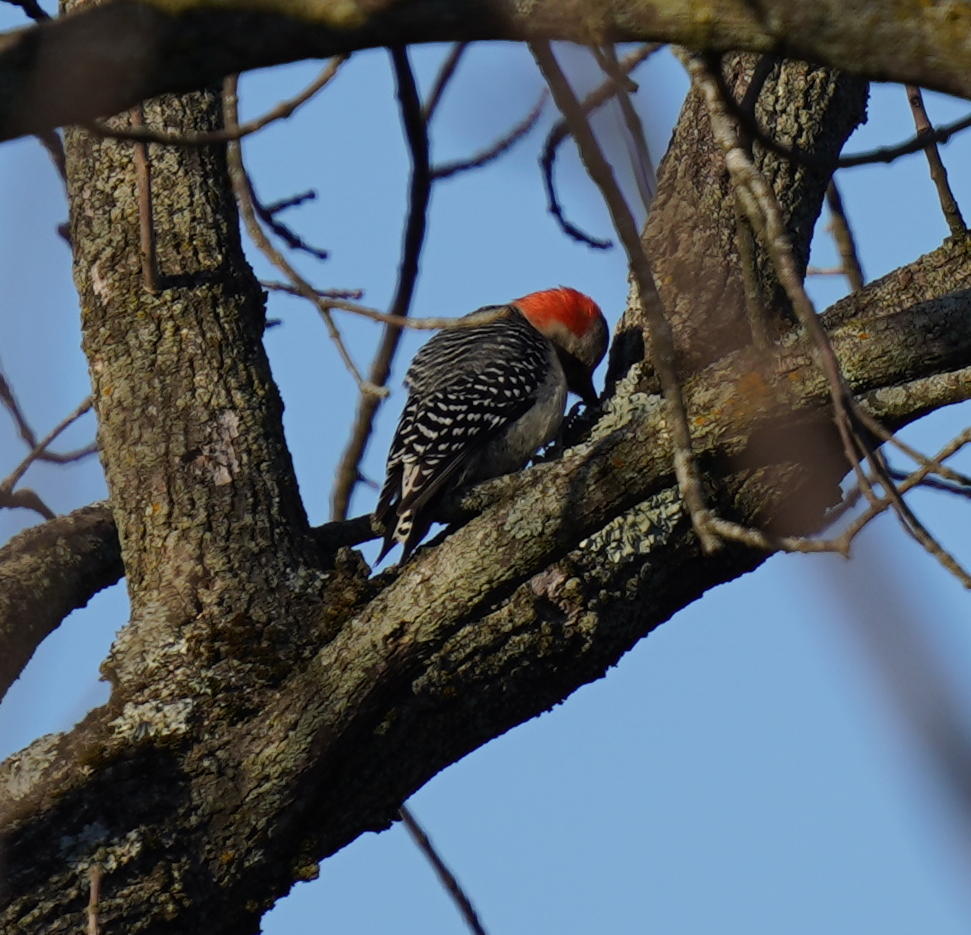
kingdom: Animalia
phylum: Chordata
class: Aves
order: Piciformes
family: Picidae
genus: Melanerpes
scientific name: Melanerpes carolinus
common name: Red-bellied woodpecker
